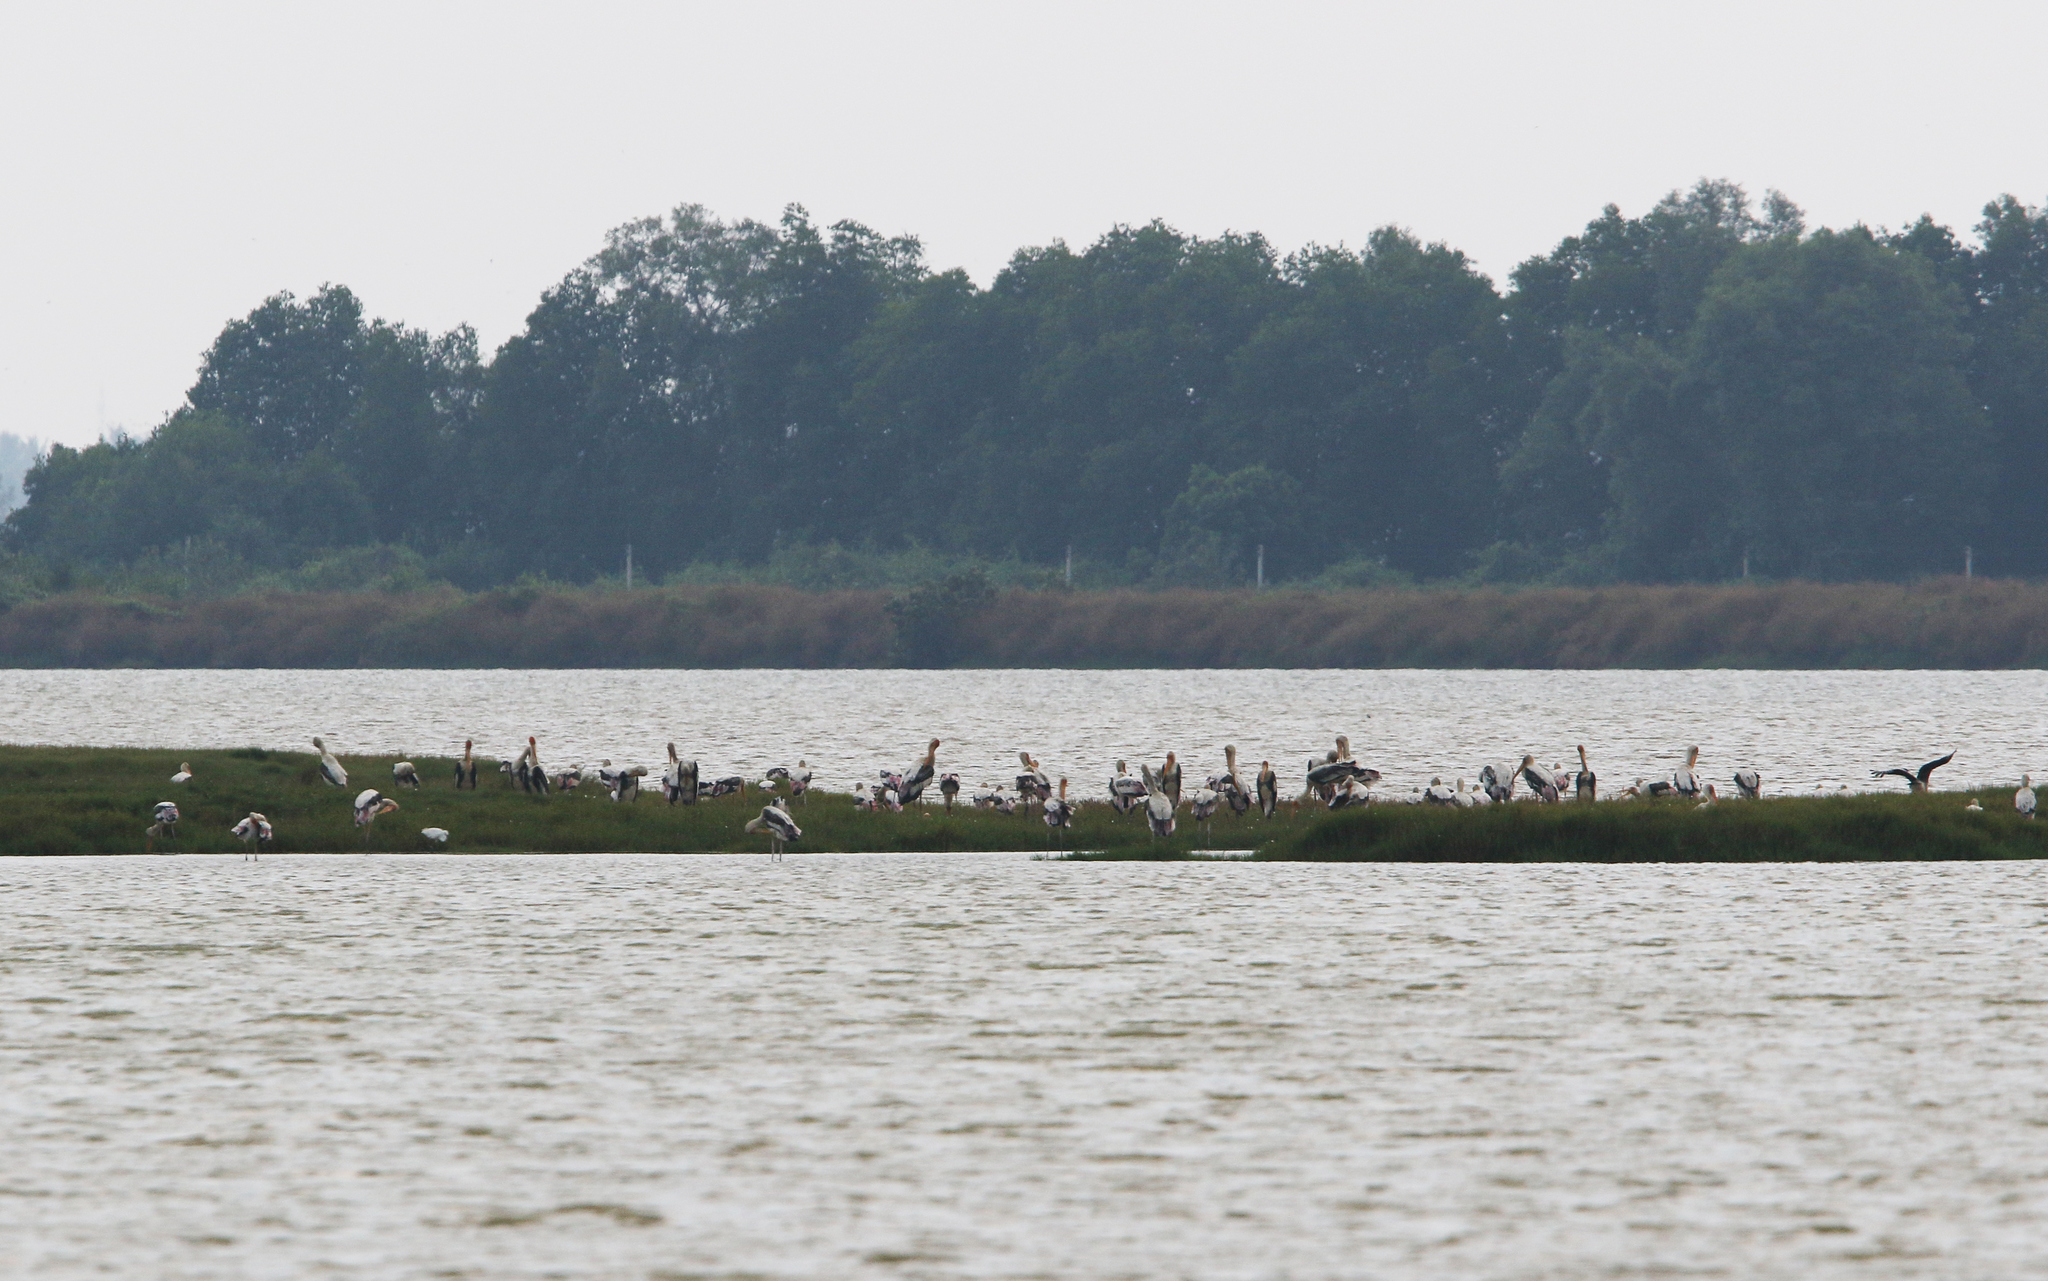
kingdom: Animalia
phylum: Chordata
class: Aves
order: Ciconiiformes
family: Ciconiidae
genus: Mycteria
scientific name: Mycteria leucocephala
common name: Painted stork
